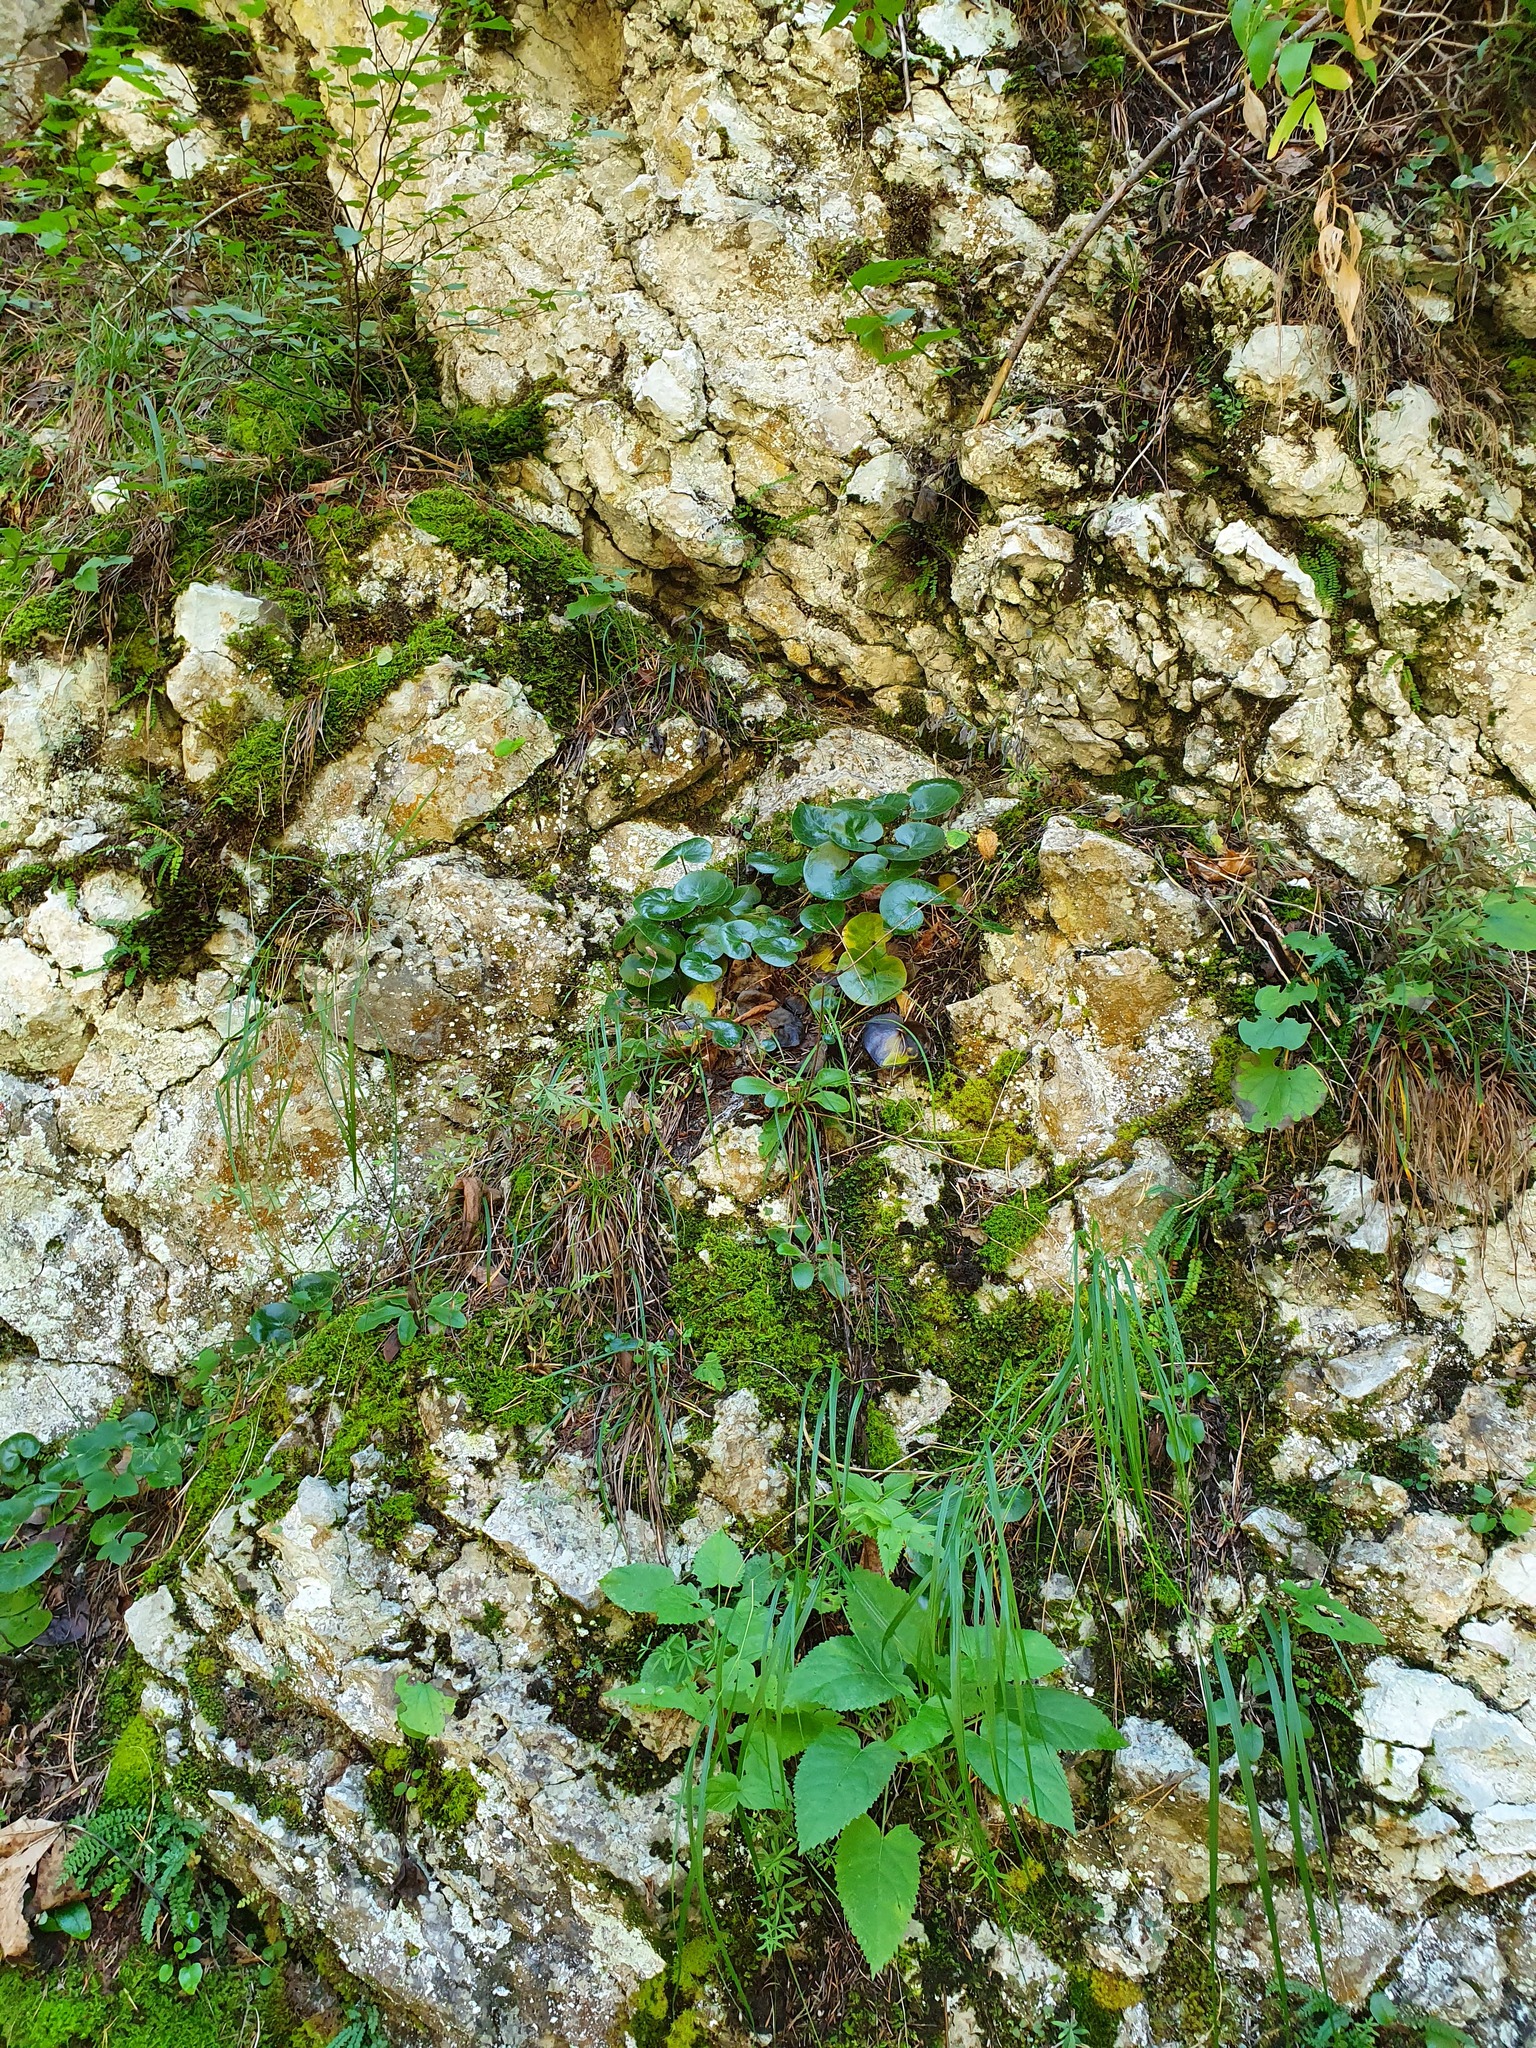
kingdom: Plantae
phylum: Tracheophyta
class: Magnoliopsida
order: Piperales
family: Aristolochiaceae
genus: Asarum
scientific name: Asarum europaeum
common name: Asarabacca
